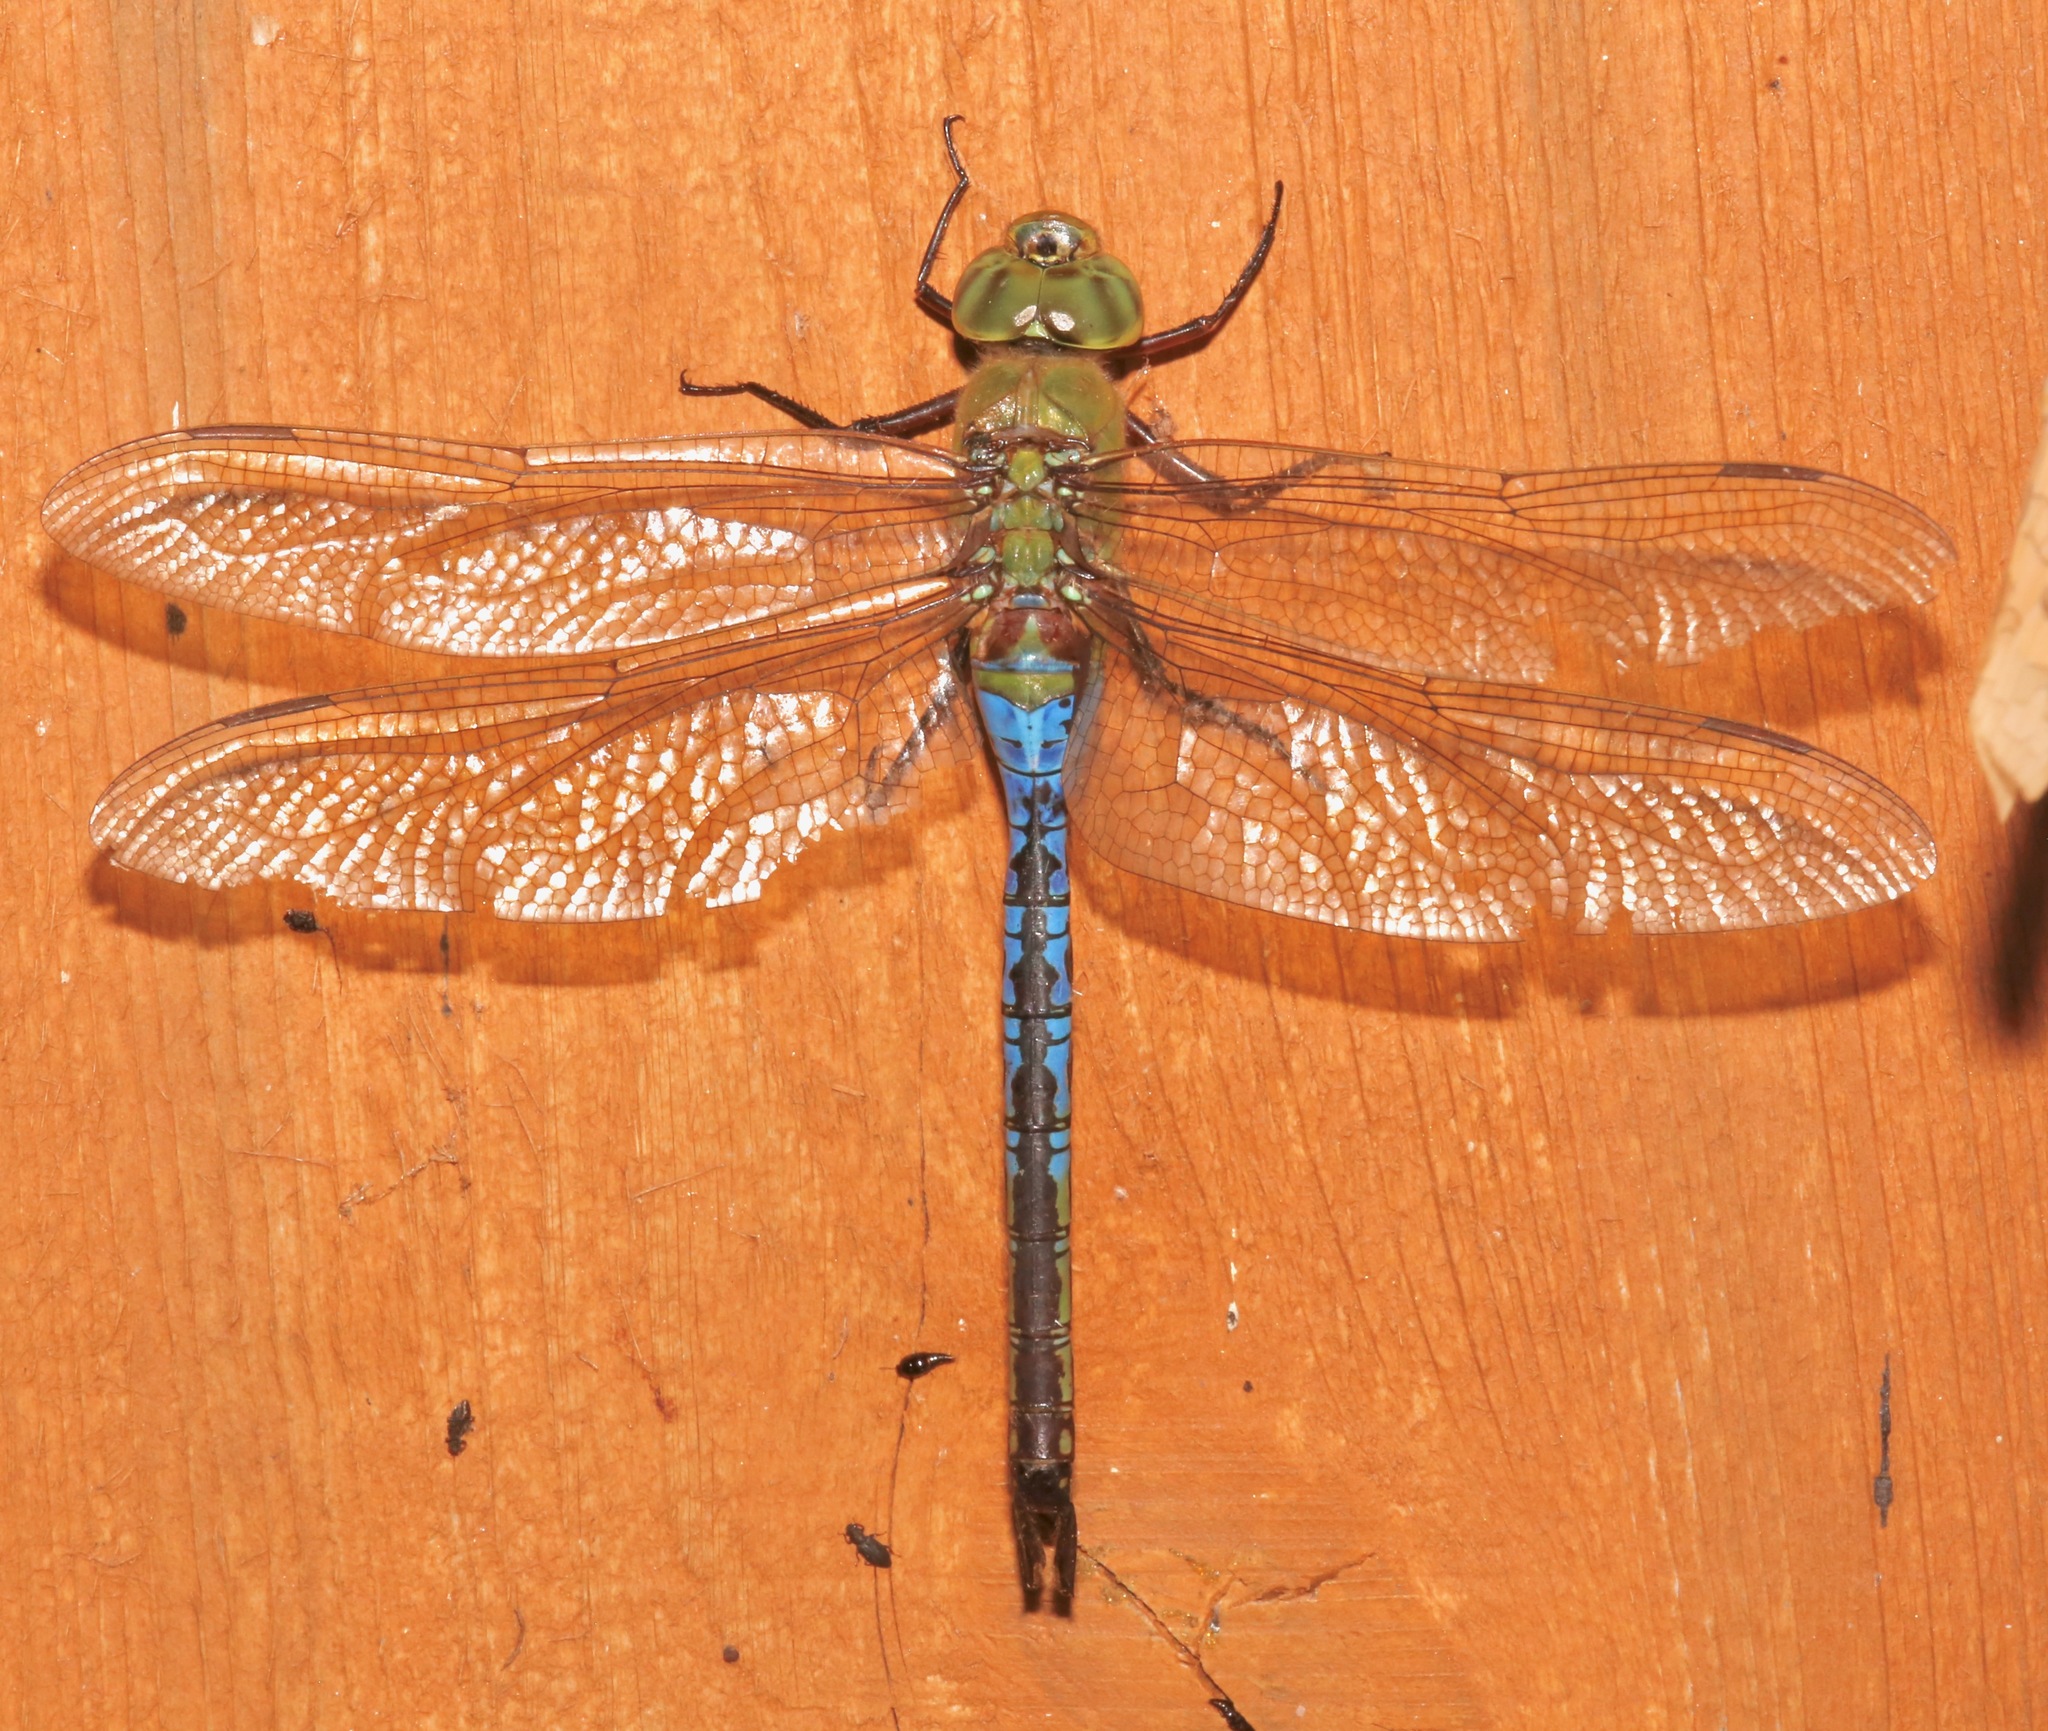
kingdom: Animalia
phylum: Arthropoda
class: Insecta
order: Odonata
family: Aeshnidae
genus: Anax
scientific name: Anax junius
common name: Common green darner
